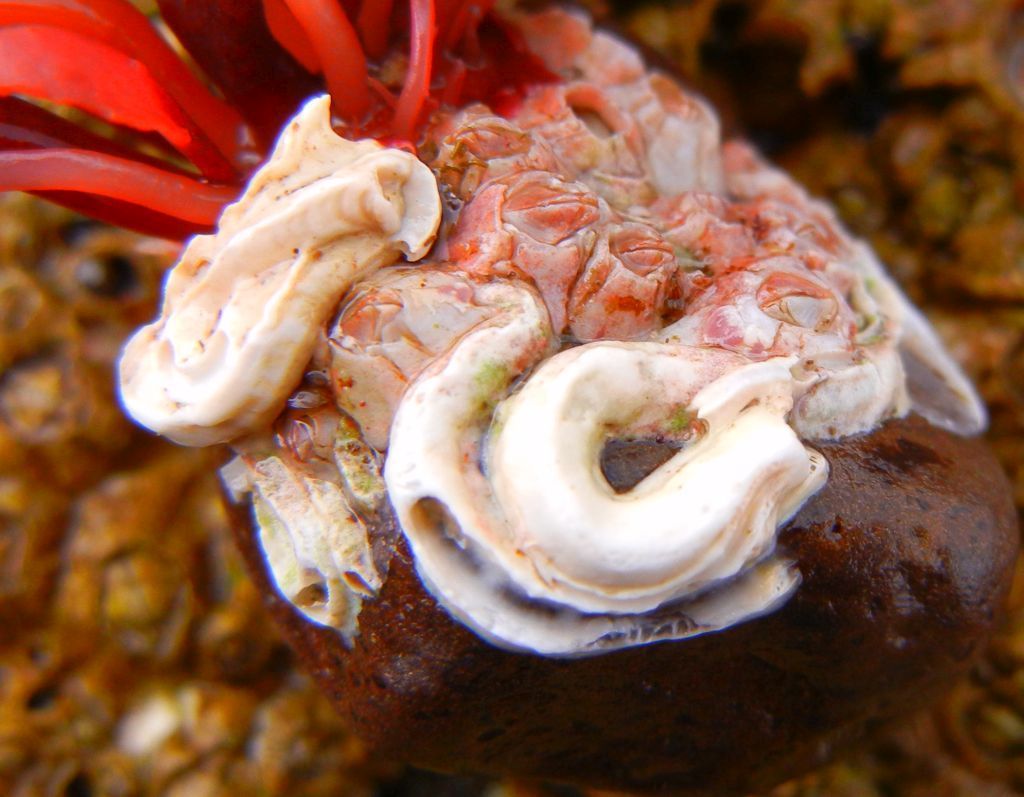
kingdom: Animalia
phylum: Annelida
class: Polychaeta
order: Sabellida
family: Serpulidae
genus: Spirobranchus
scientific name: Spirobranchus triqueter
